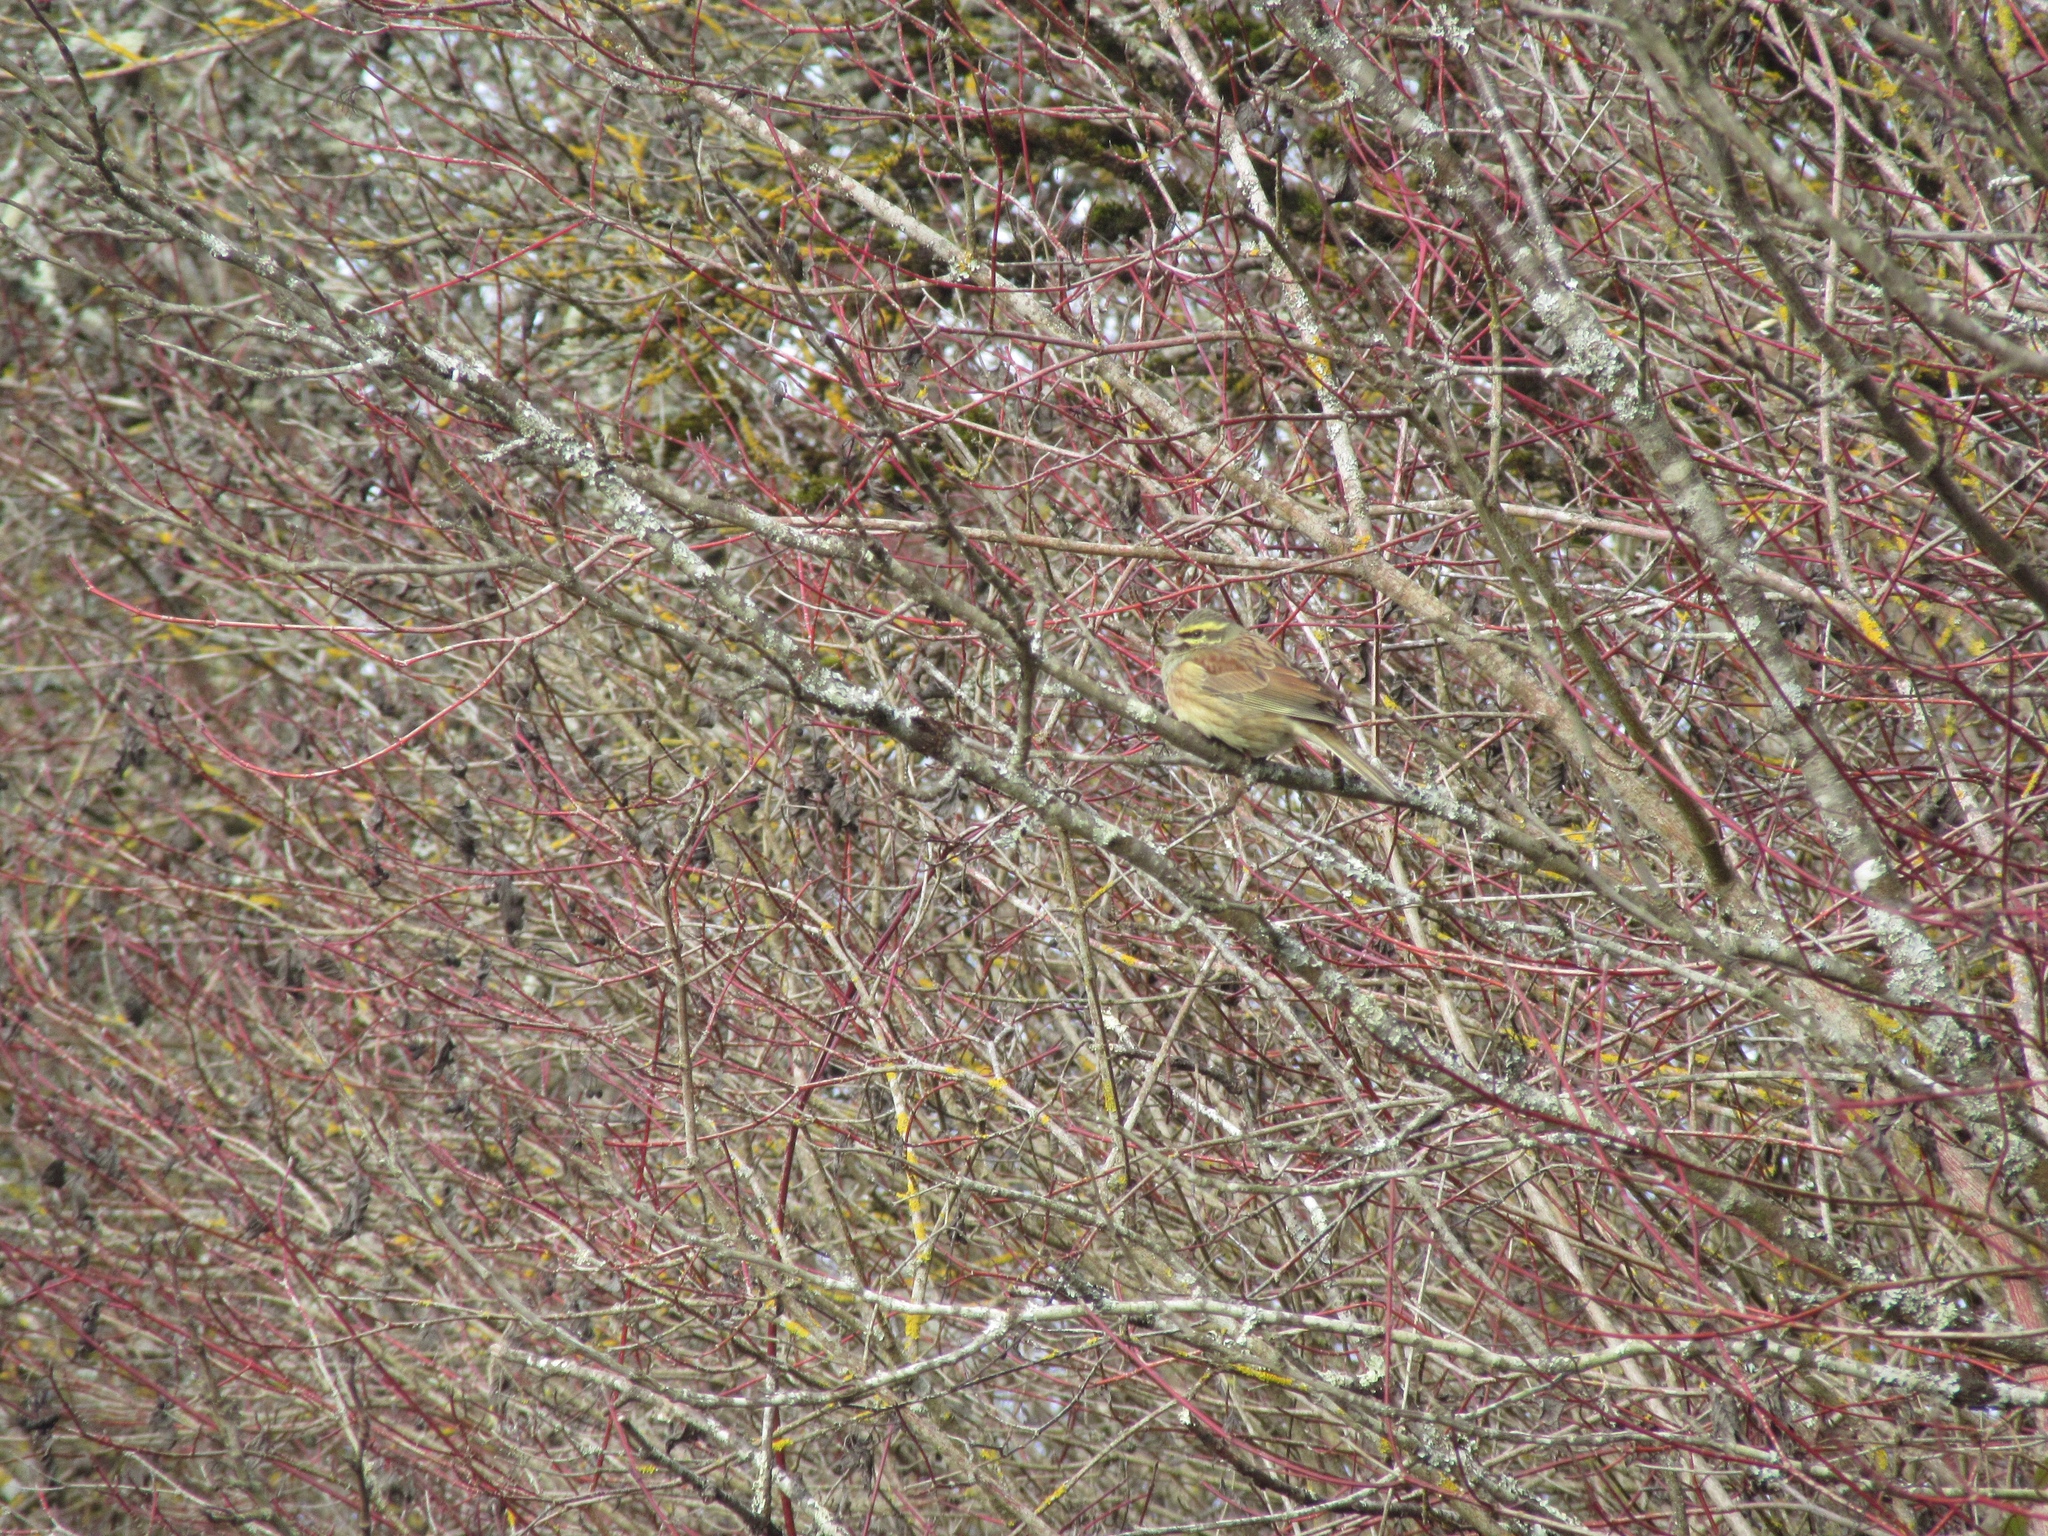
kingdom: Animalia
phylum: Chordata
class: Aves
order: Passeriformes
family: Emberizidae
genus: Emberiza
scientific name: Emberiza cirlus
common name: Cirl bunting
